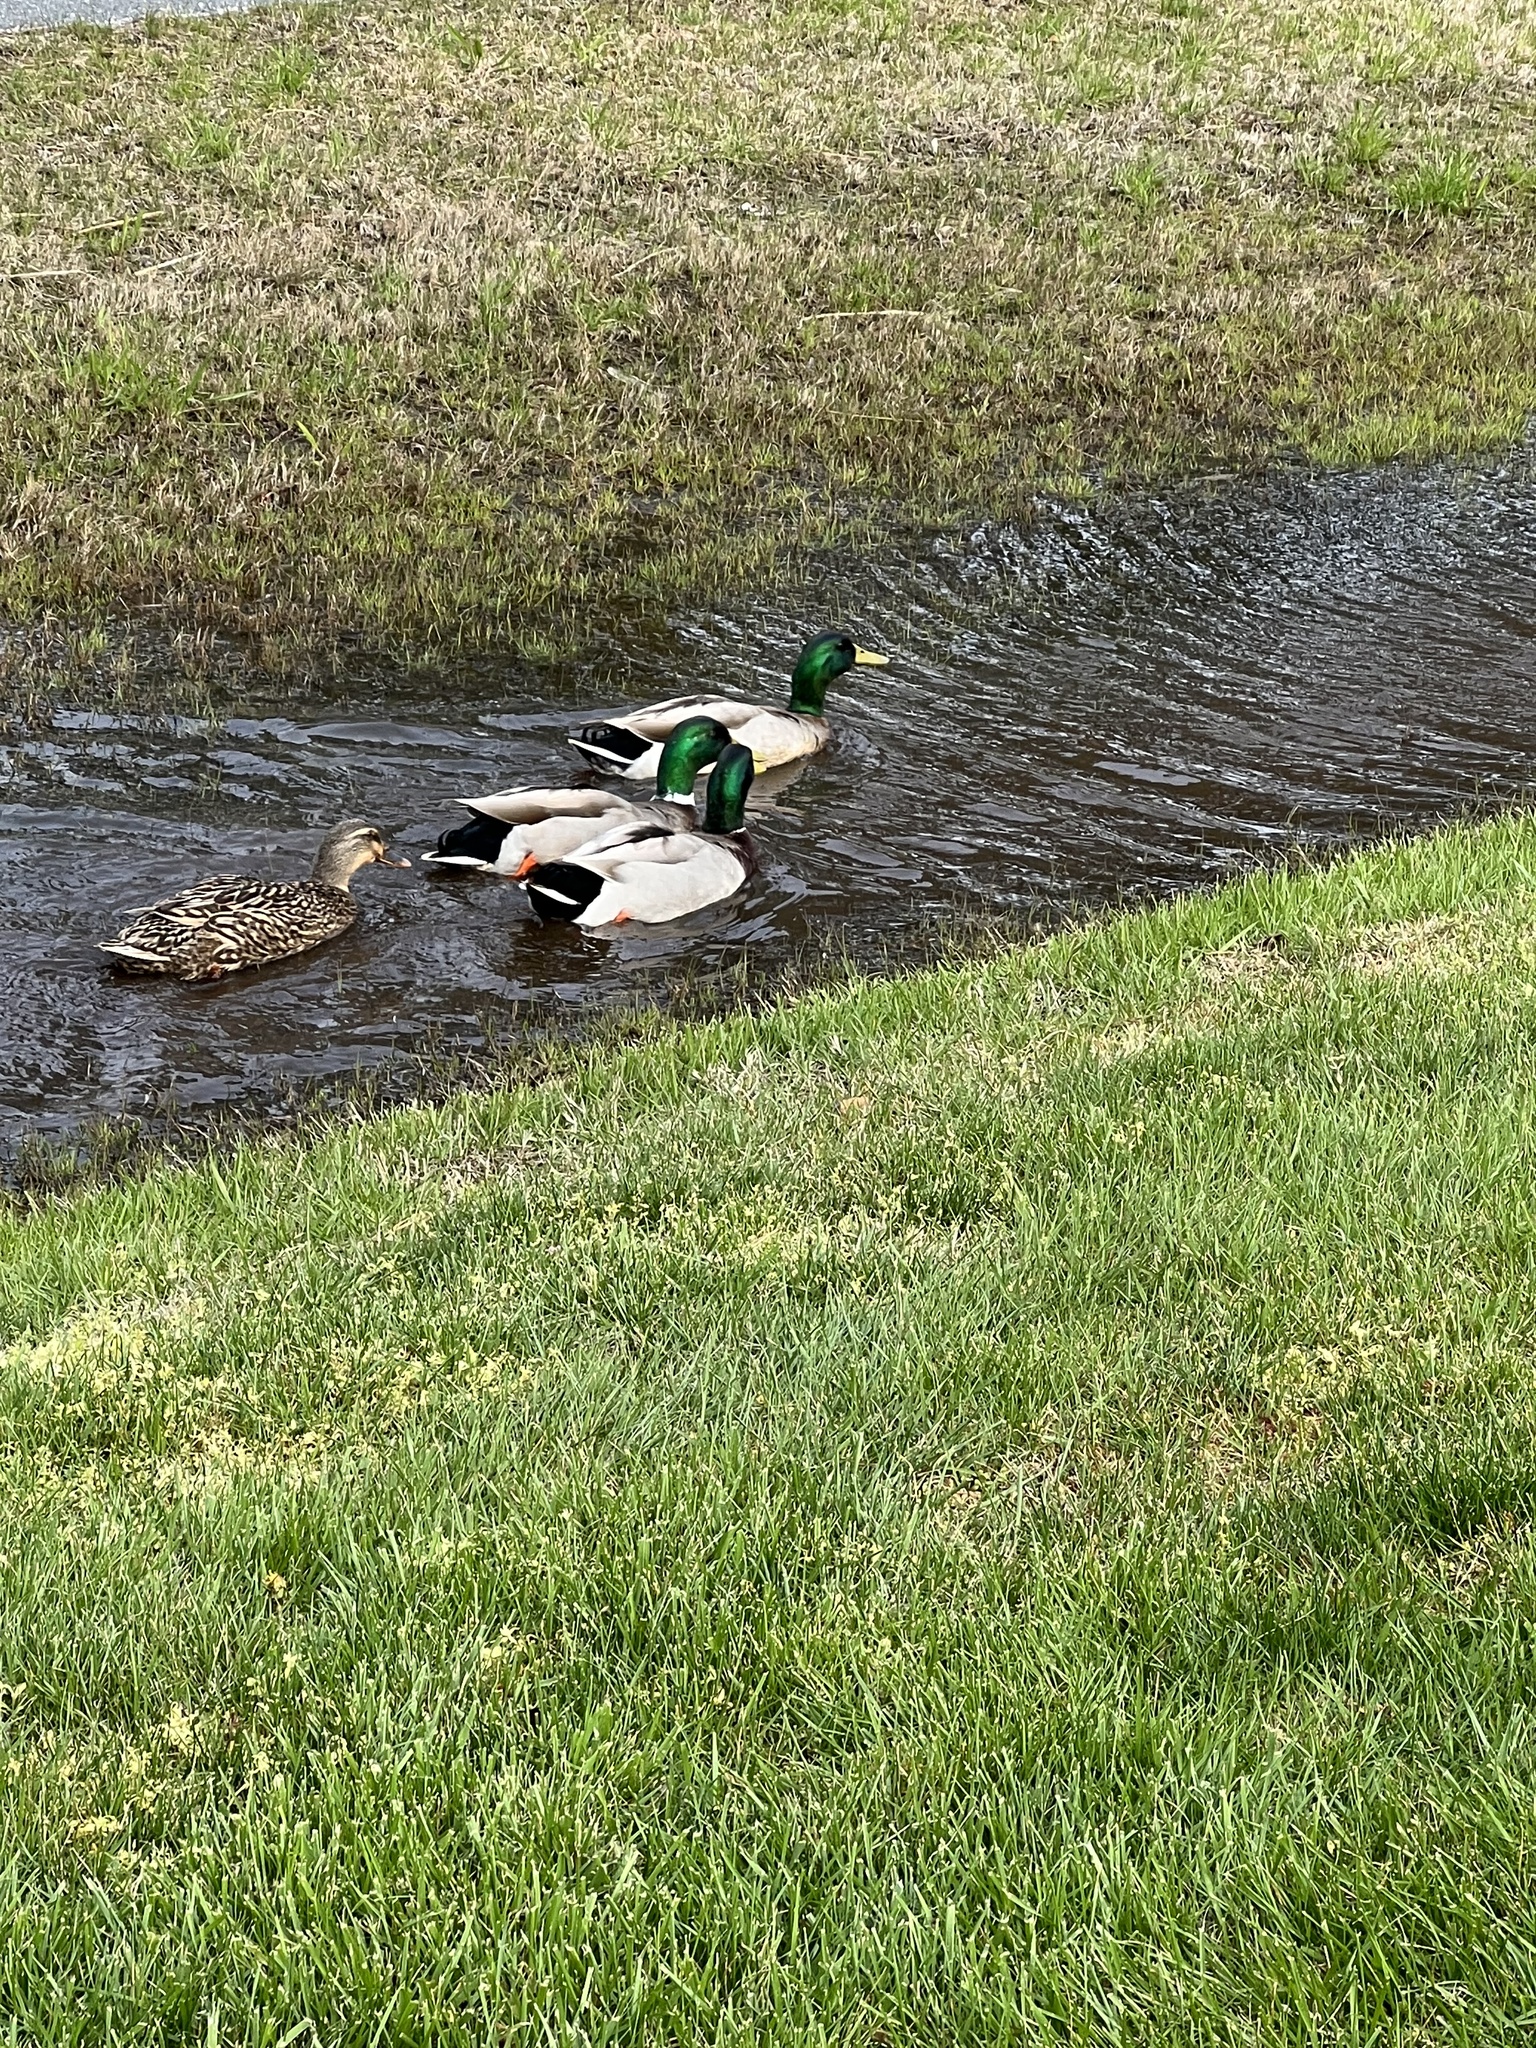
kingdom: Animalia
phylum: Chordata
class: Aves
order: Anseriformes
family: Anatidae
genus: Anas
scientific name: Anas platyrhynchos
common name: Mallard
